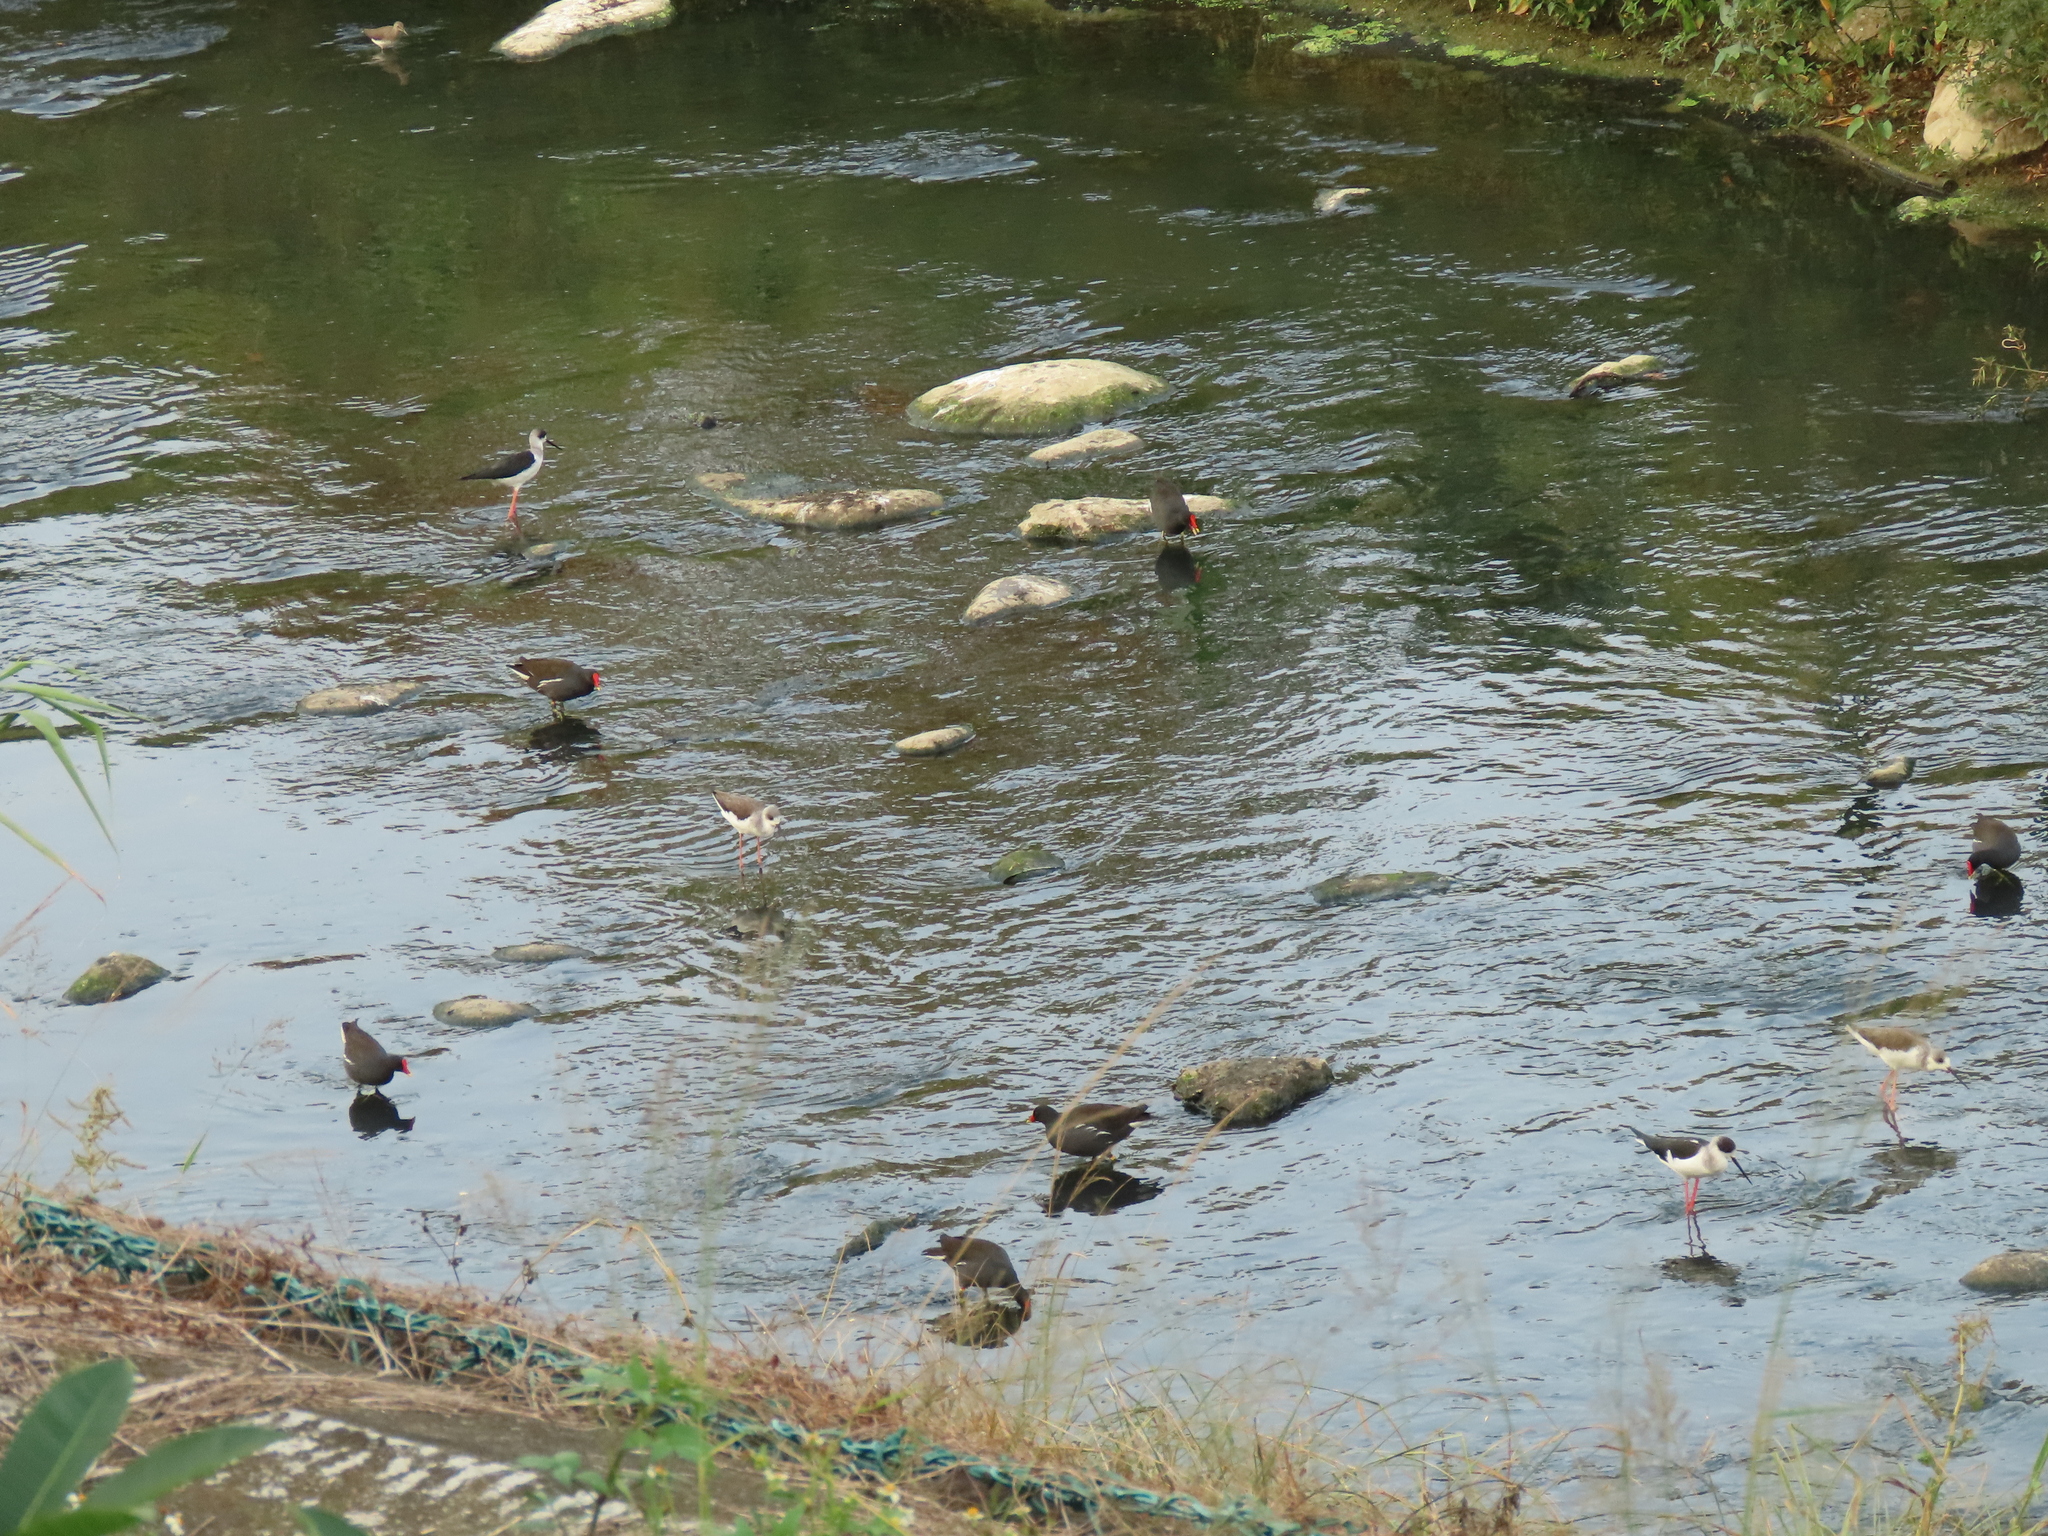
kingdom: Animalia
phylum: Chordata
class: Aves
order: Charadriiformes
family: Recurvirostridae
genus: Himantopus
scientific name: Himantopus himantopus
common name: Black-winged stilt
